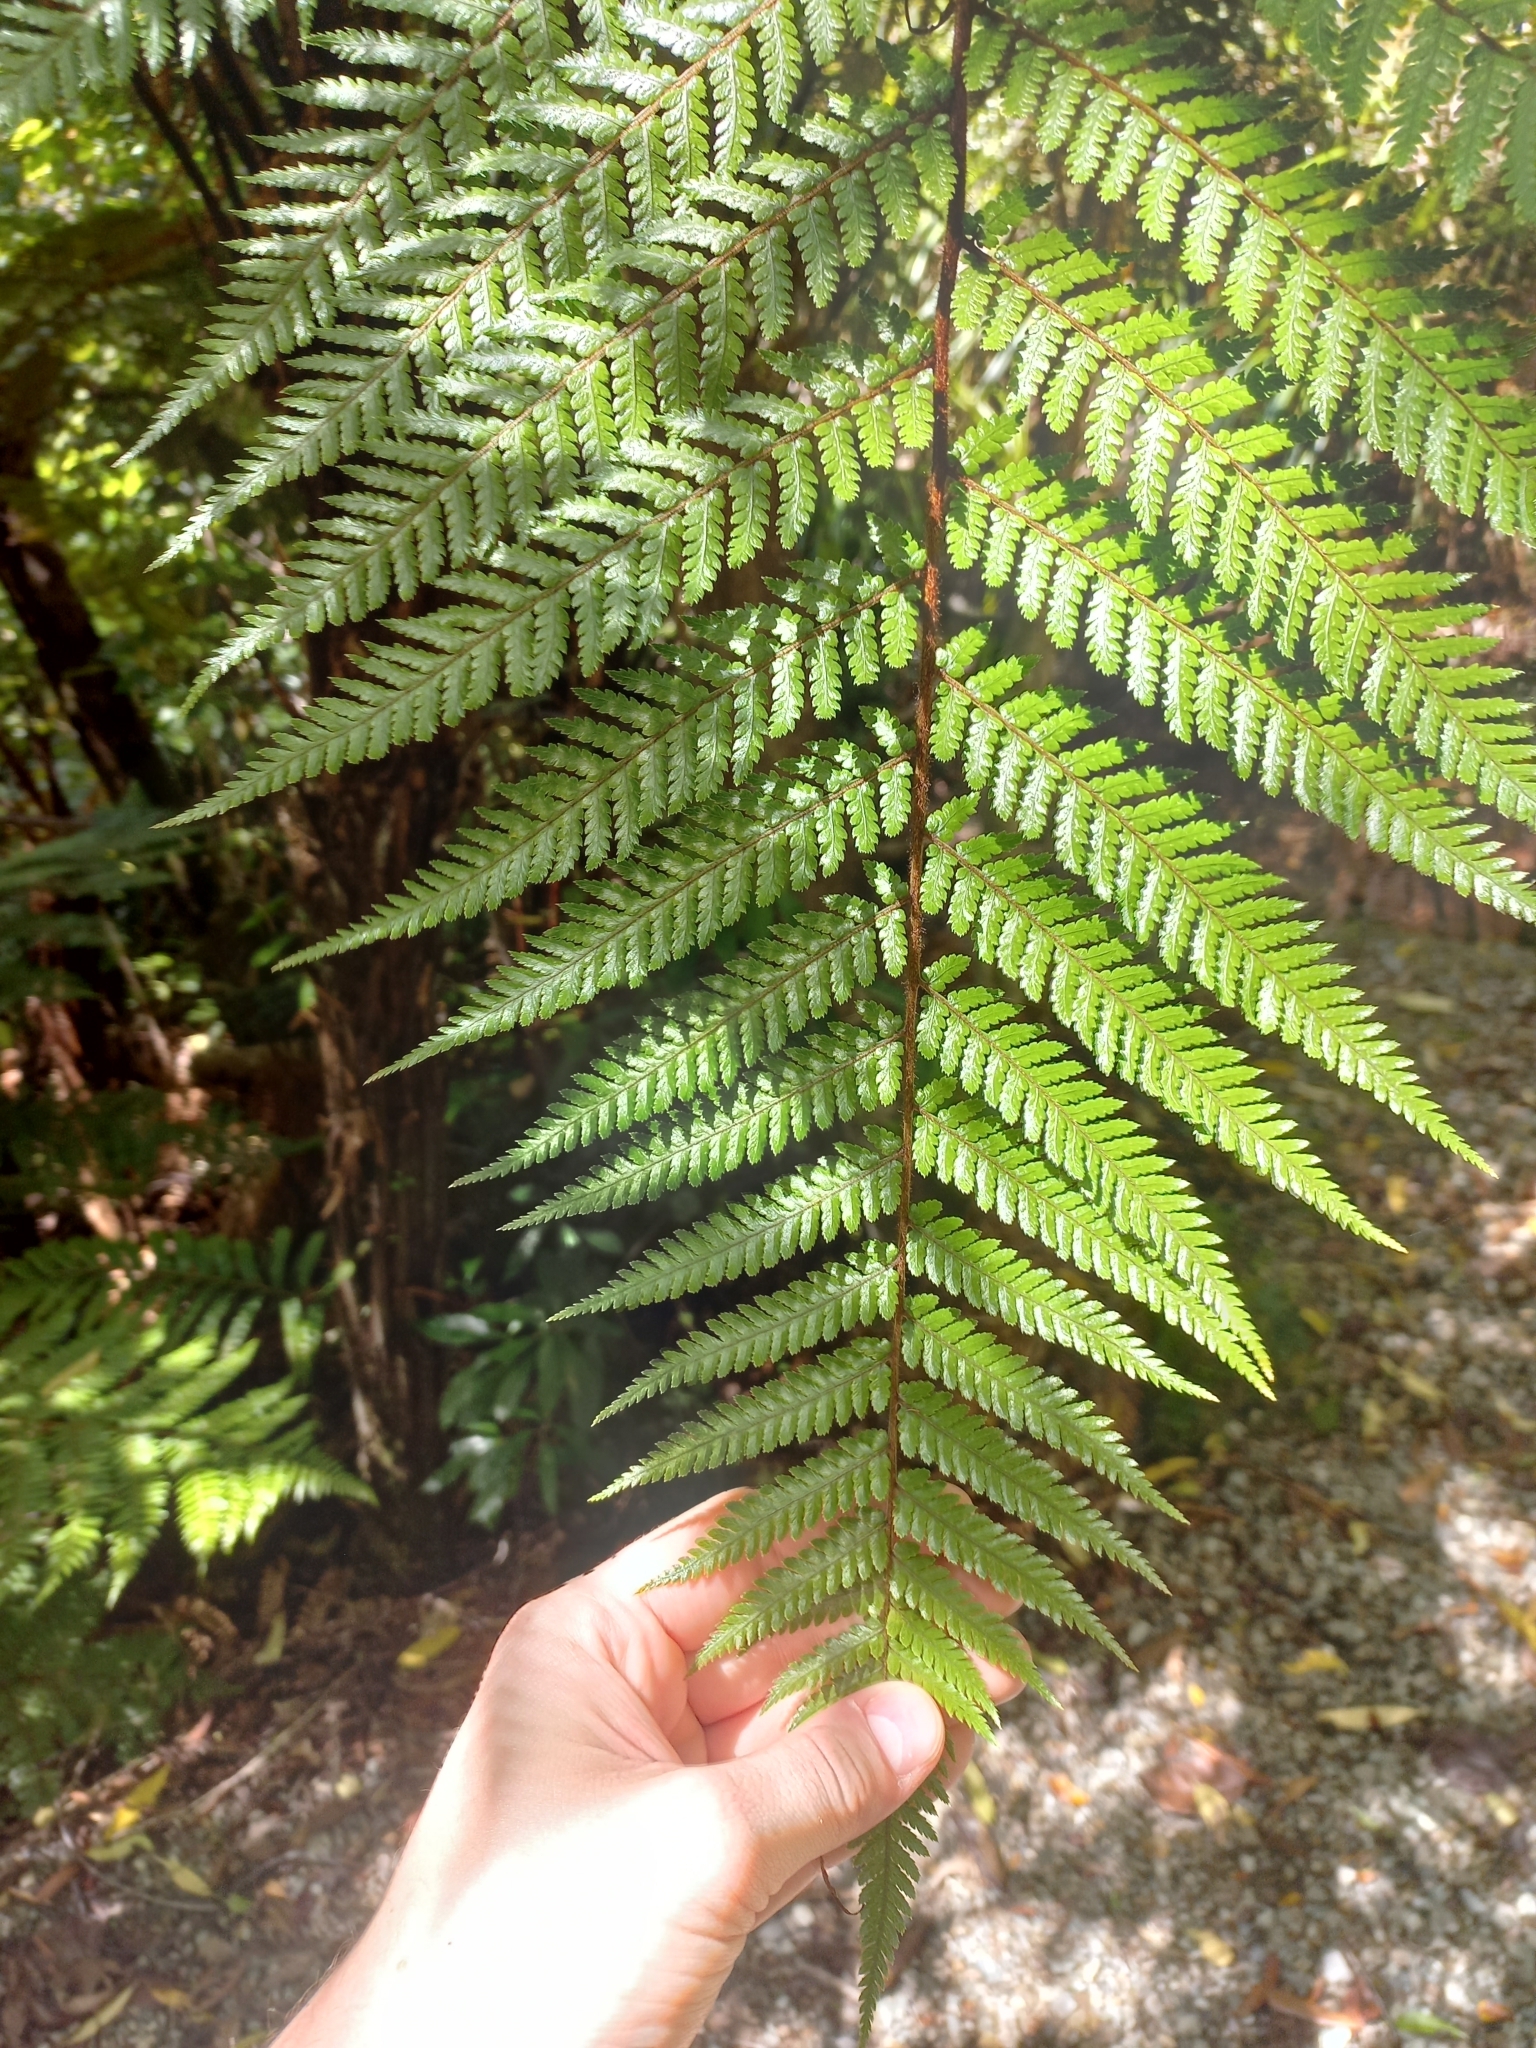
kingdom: Plantae
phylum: Tracheophyta
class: Polypodiopsida
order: Cyatheales
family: Dicksoniaceae
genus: Dicksonia
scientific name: Dicksonia squarrosa
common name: Hard treefern
